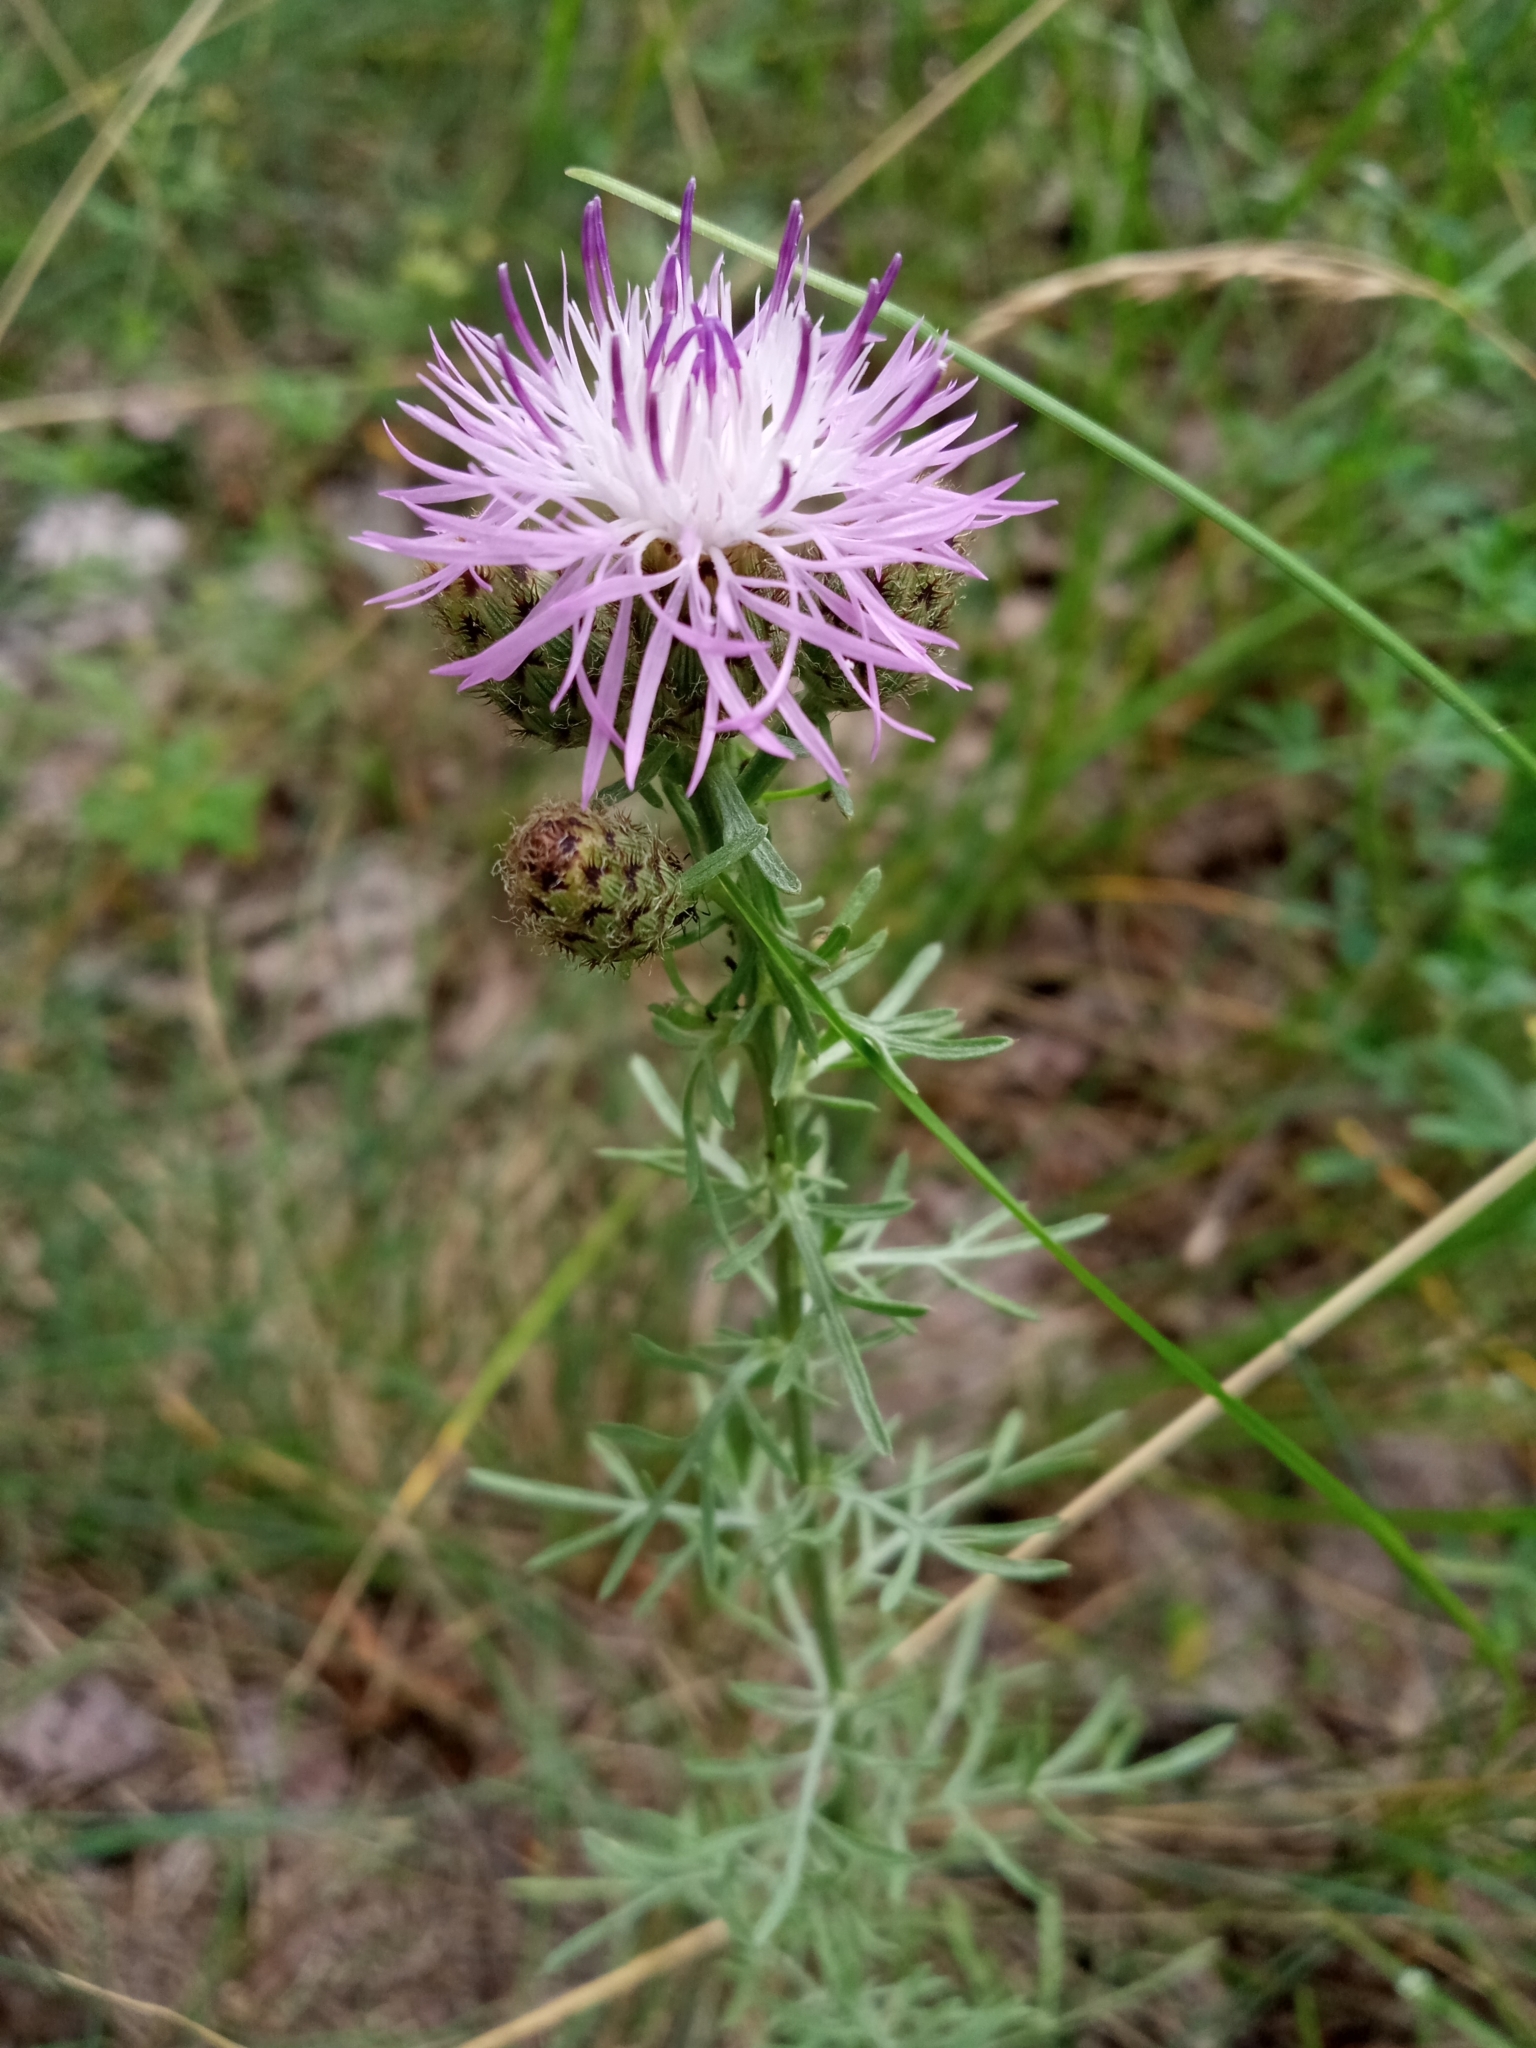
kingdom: Plantae
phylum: Tracheophyta
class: Magnoliopsida
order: Asterales
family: Asteraceae
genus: Centaurea
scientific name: Centaurea stoebe
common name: Spotted knapweed
